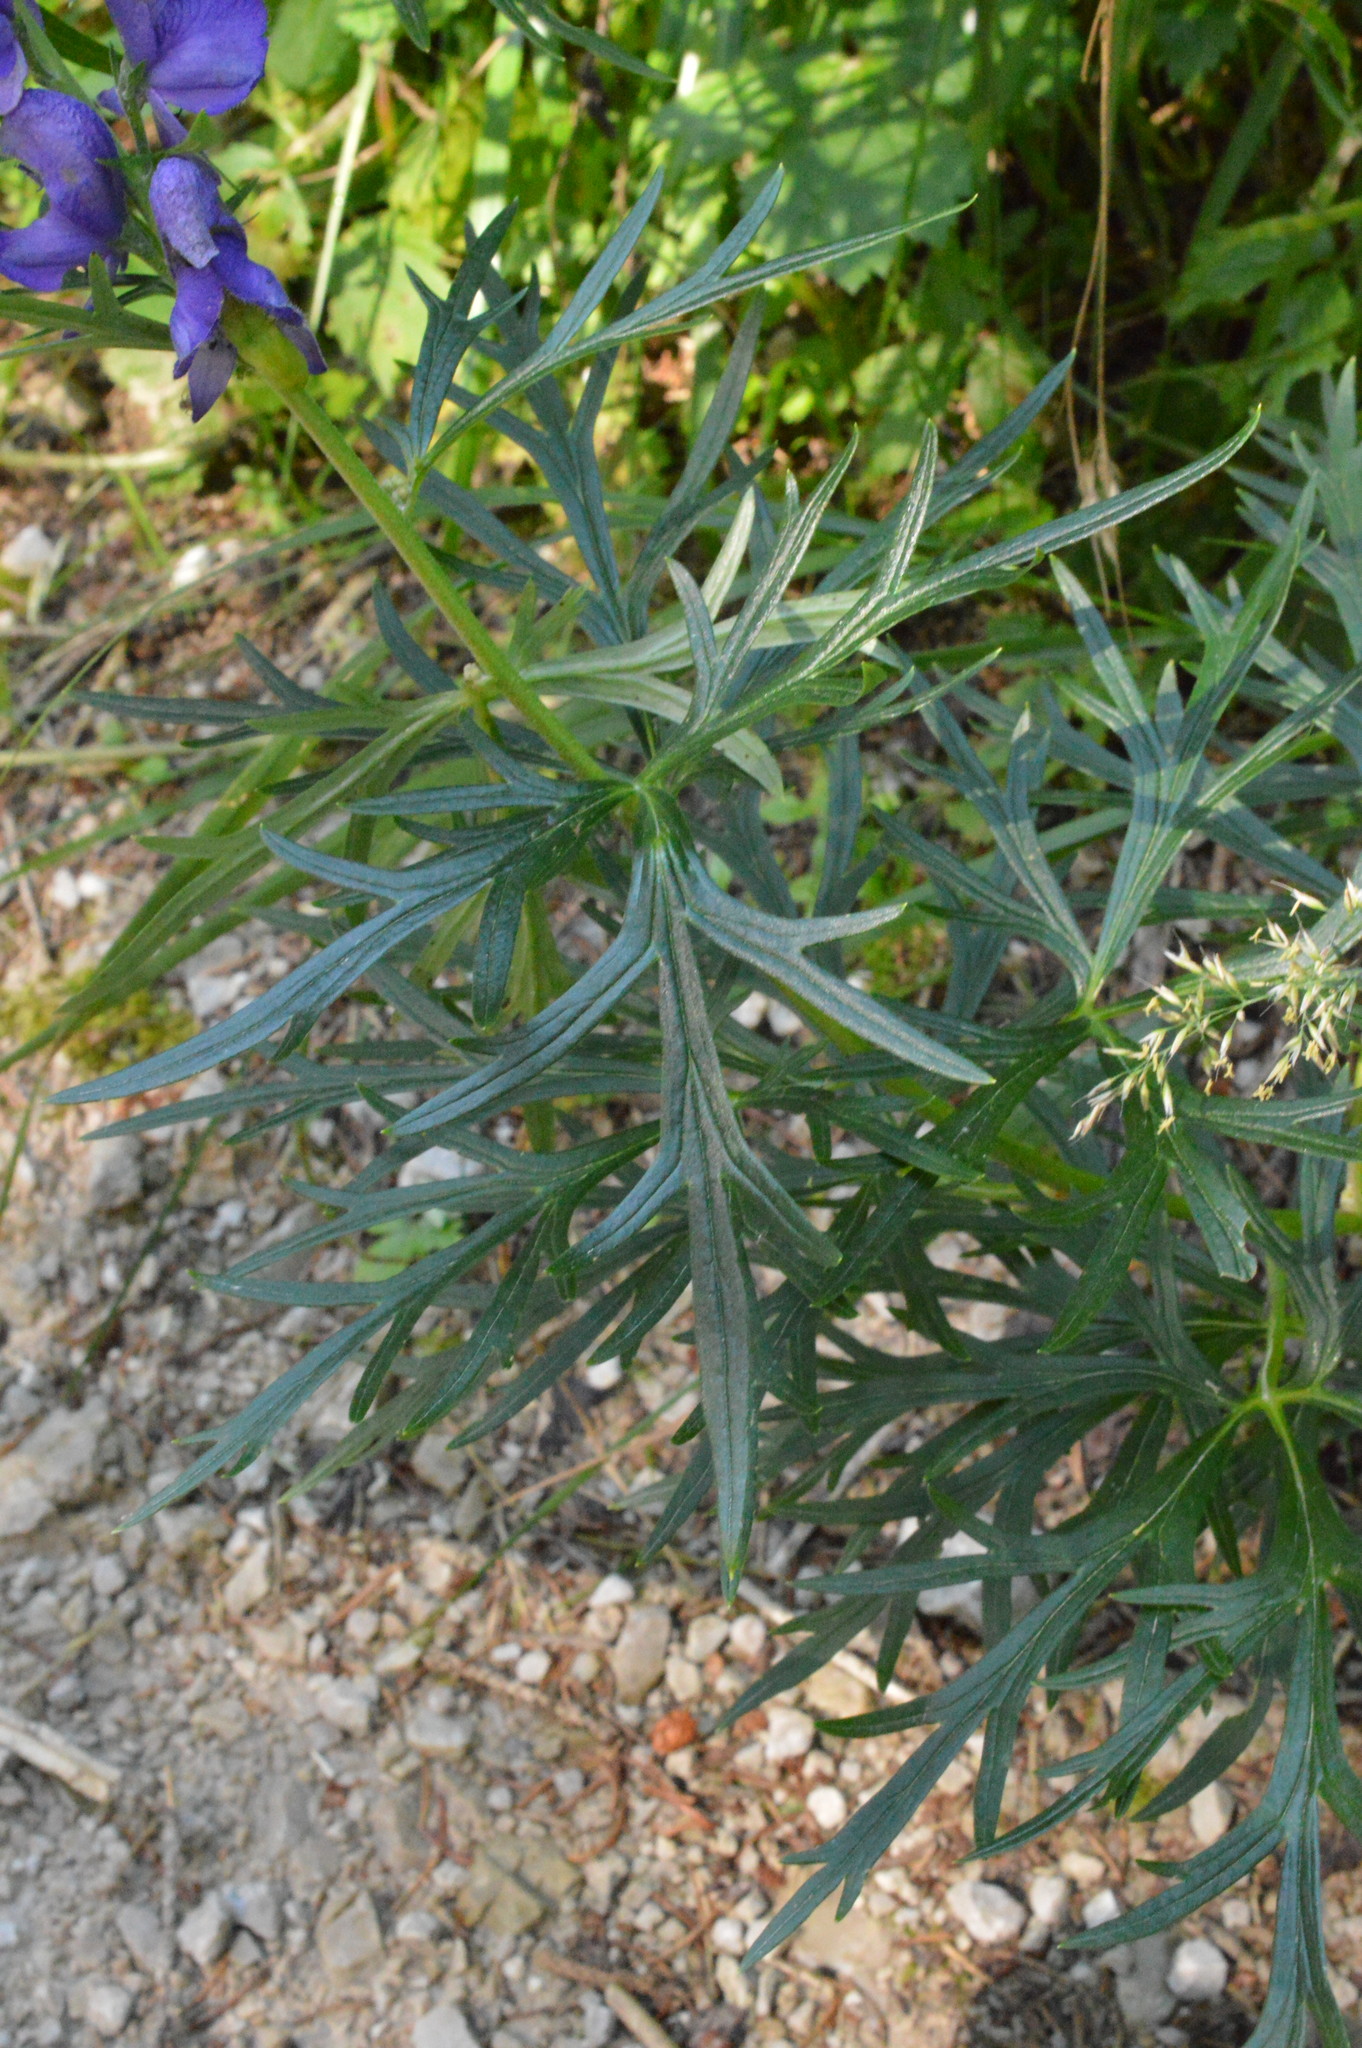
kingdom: Plantae
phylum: Tracheophyta
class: Magnoliopsida
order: Ranunculales
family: Ranunculaceae
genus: Aconitum
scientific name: Aconitum napellus
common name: Garden monkshood
